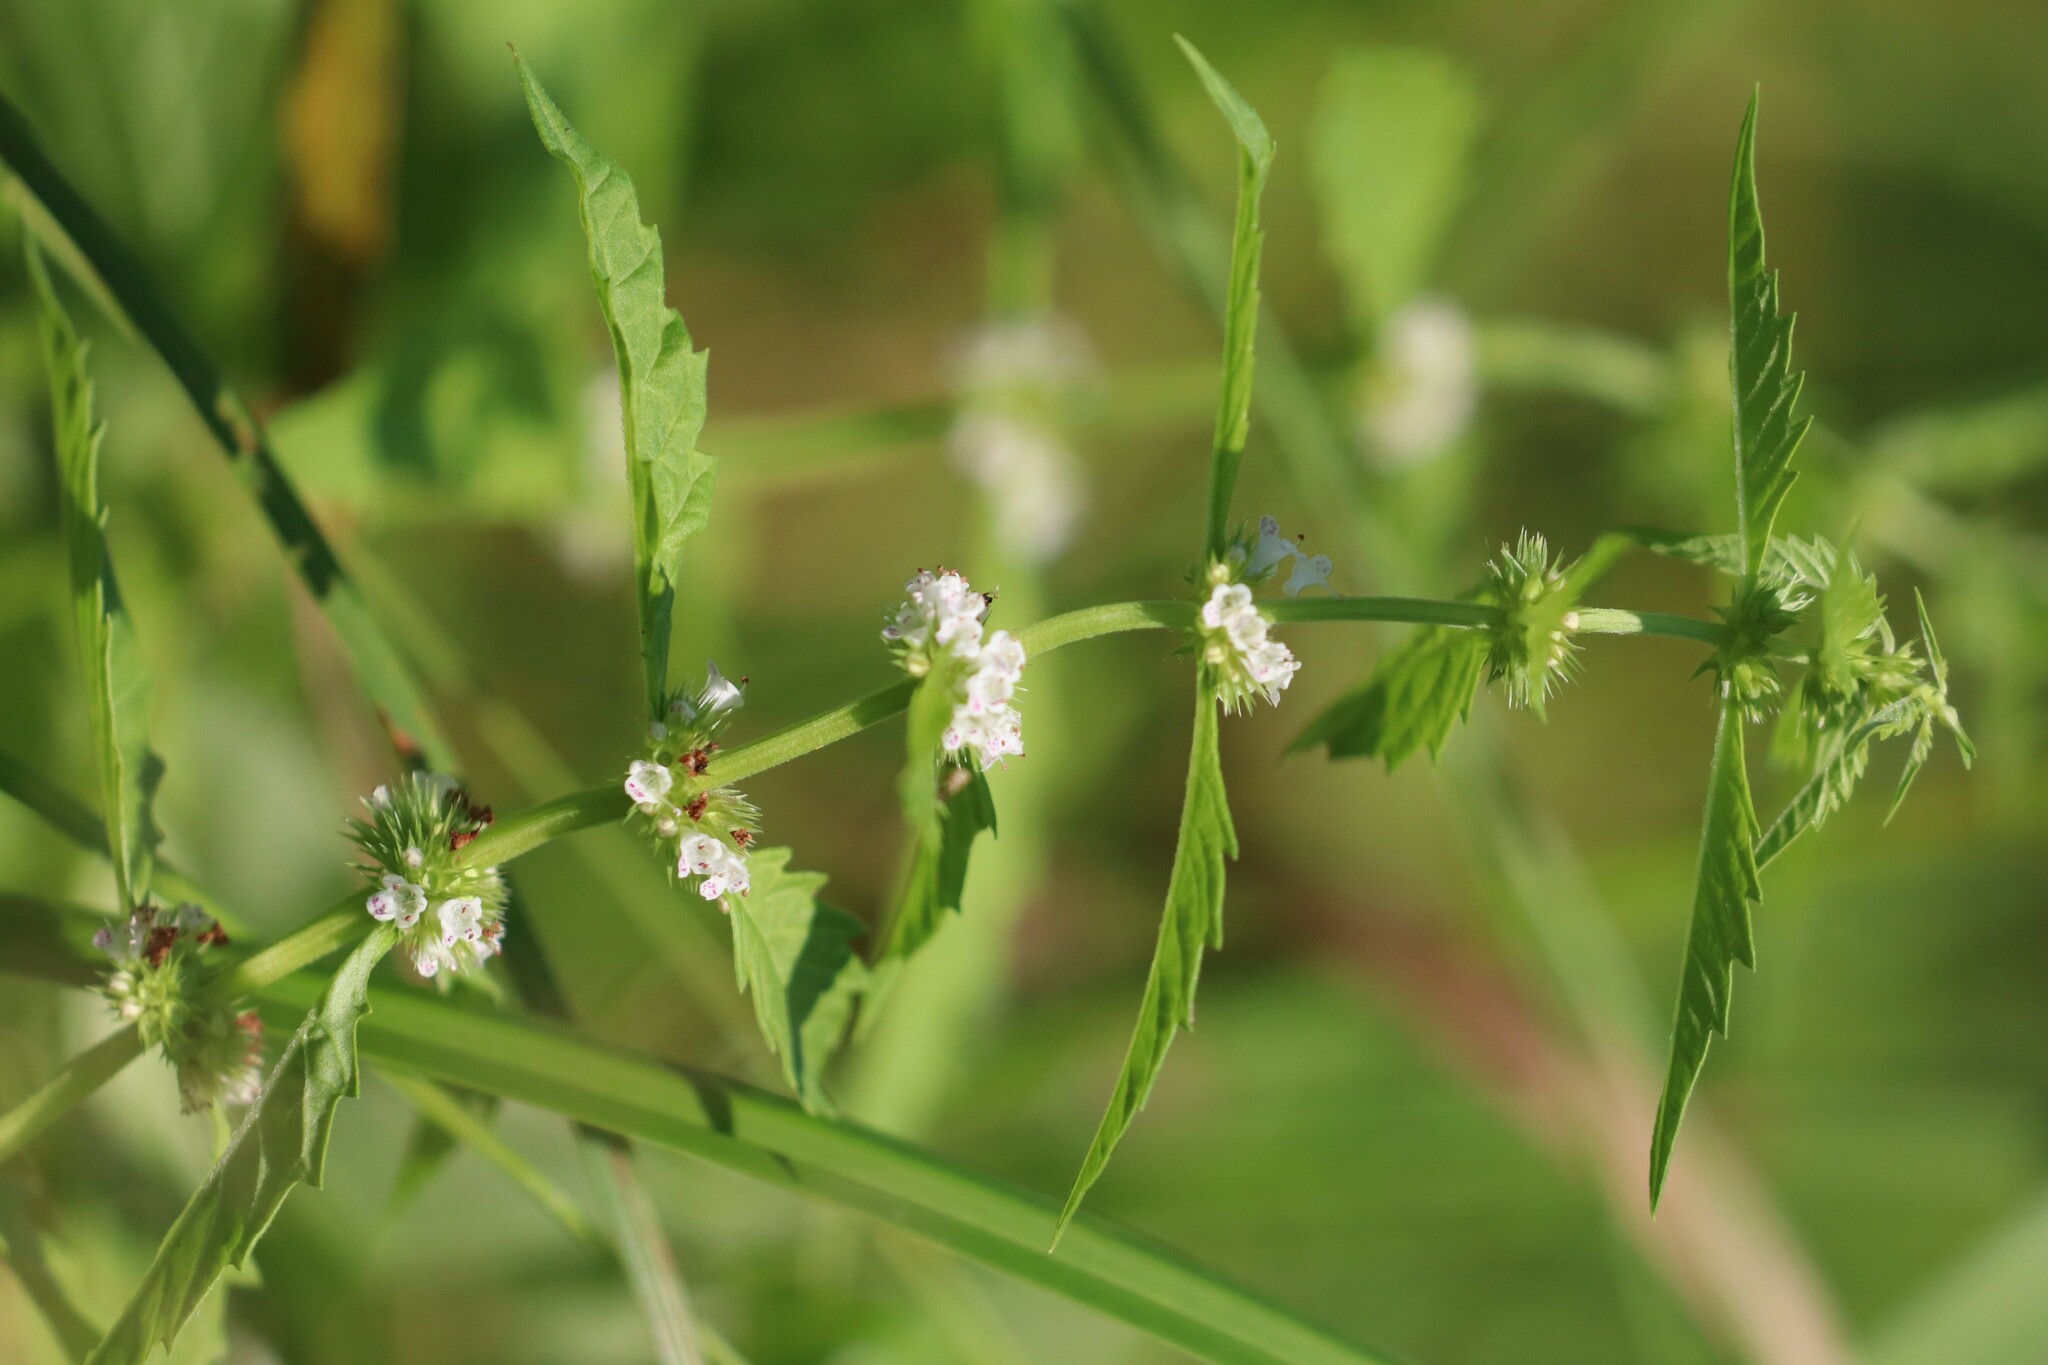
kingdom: Plantae
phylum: Tracheophyta
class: Magnoliopsida
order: Lamiales
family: Lamiaceae
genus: Lycopus
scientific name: Lycopus europaeus
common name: European bugleweed
